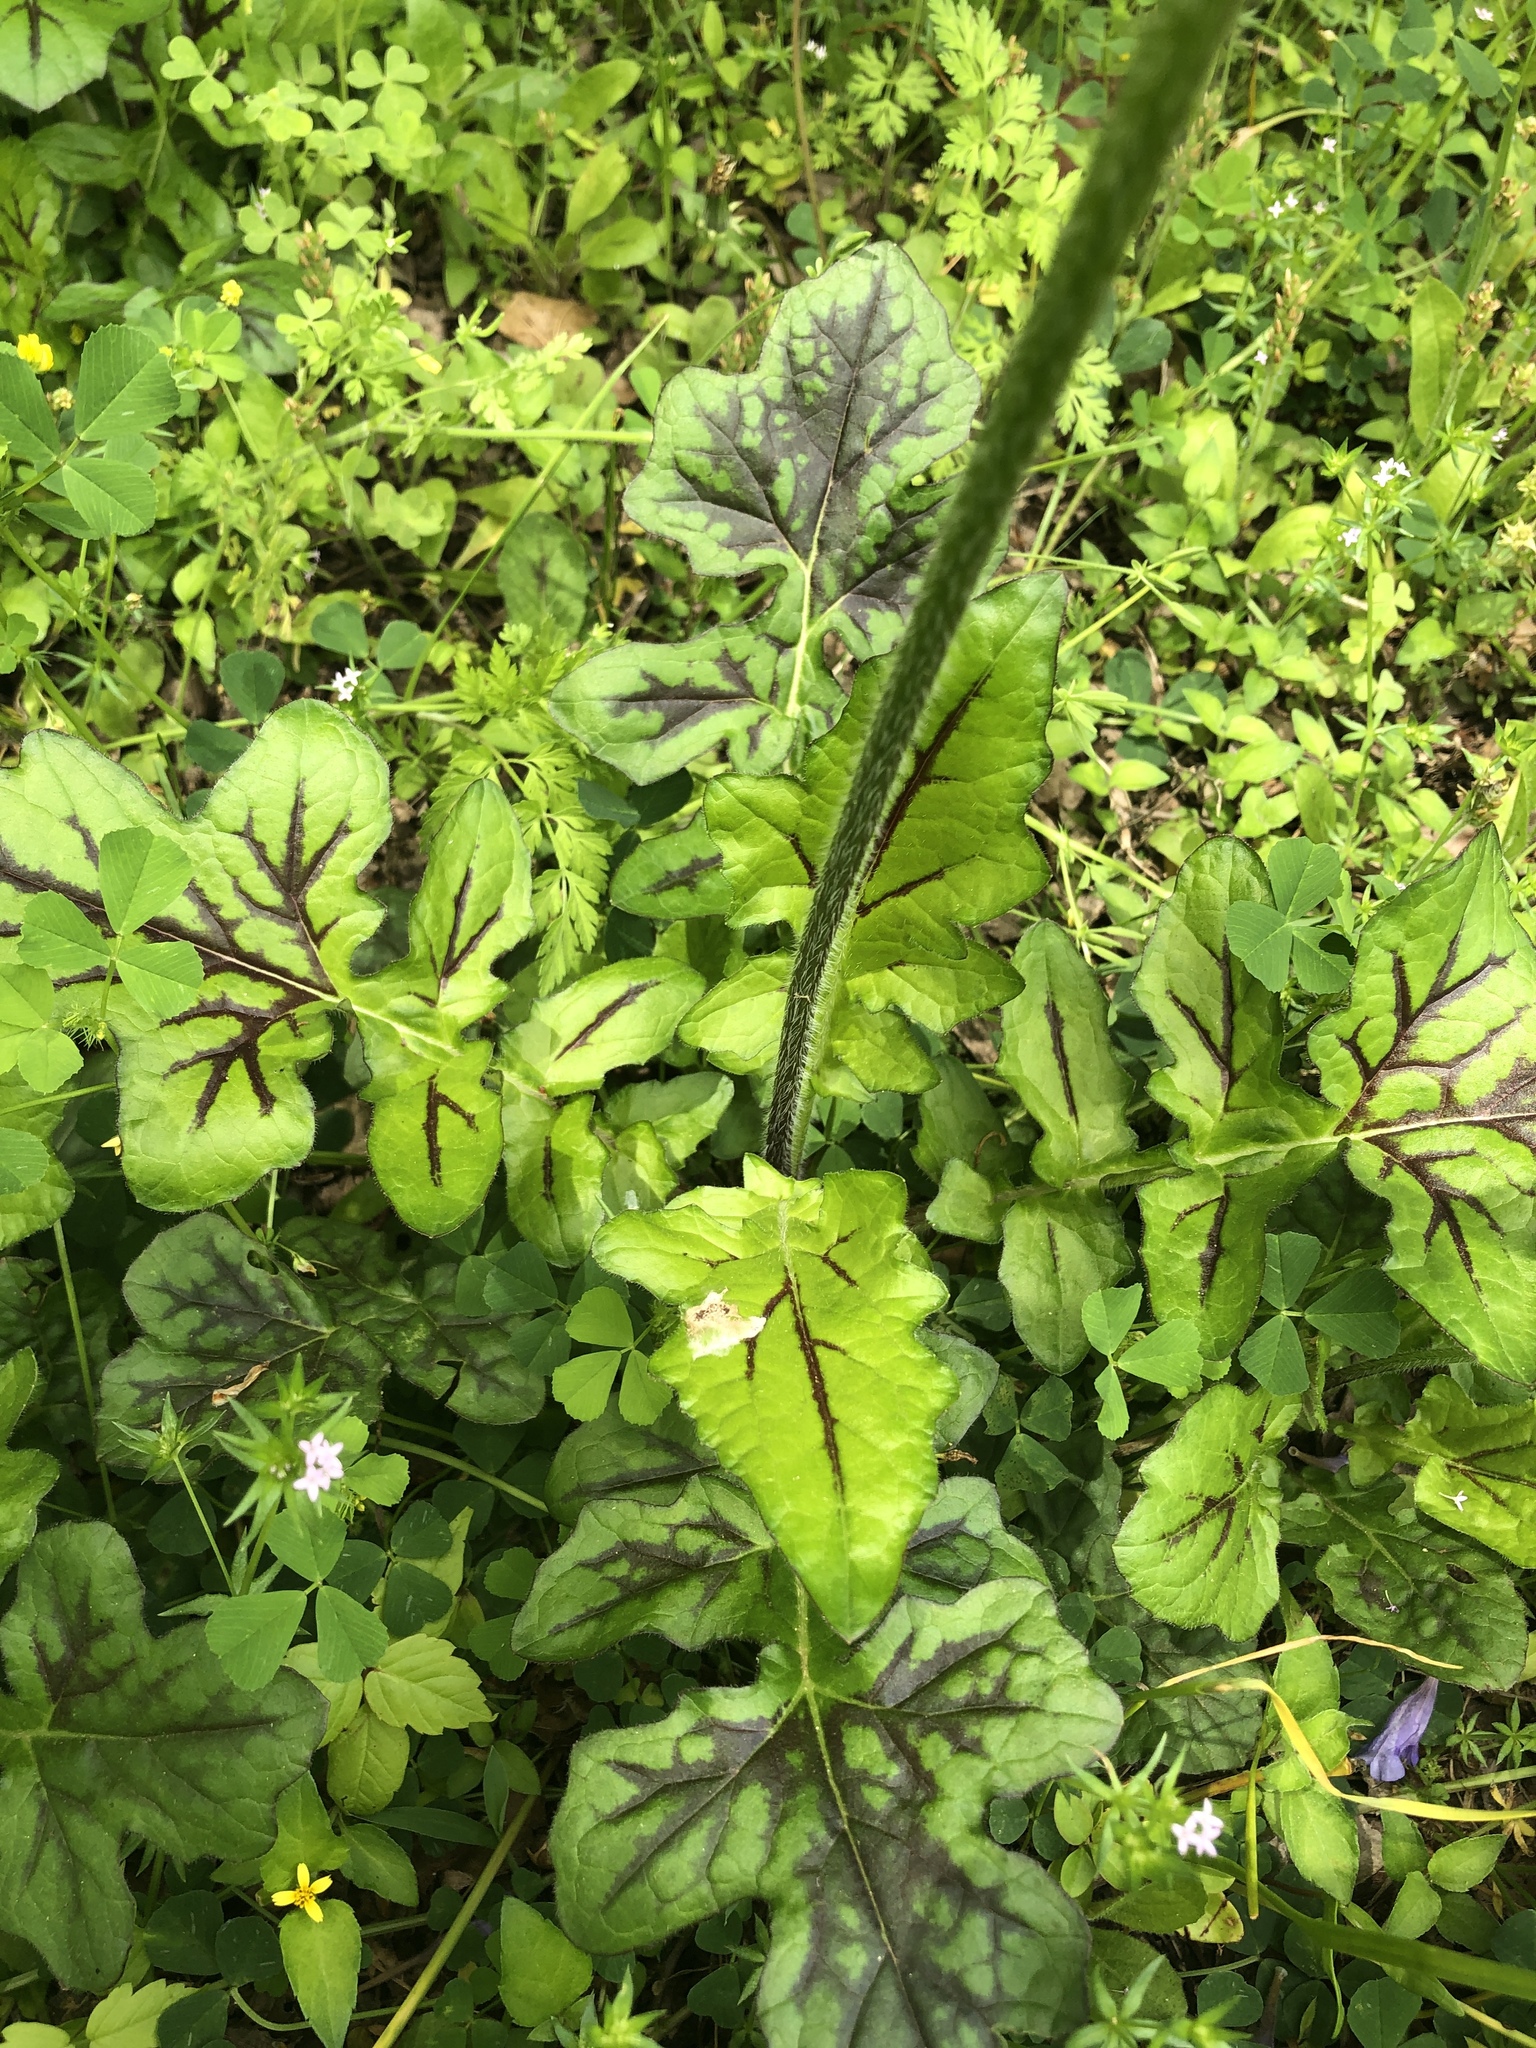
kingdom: Plantae
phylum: Tracheophyta
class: Magnoliopsida
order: Lamiales
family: Lamiaceae
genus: Salvia
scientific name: Salvia lyrata
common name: Cancerweed
